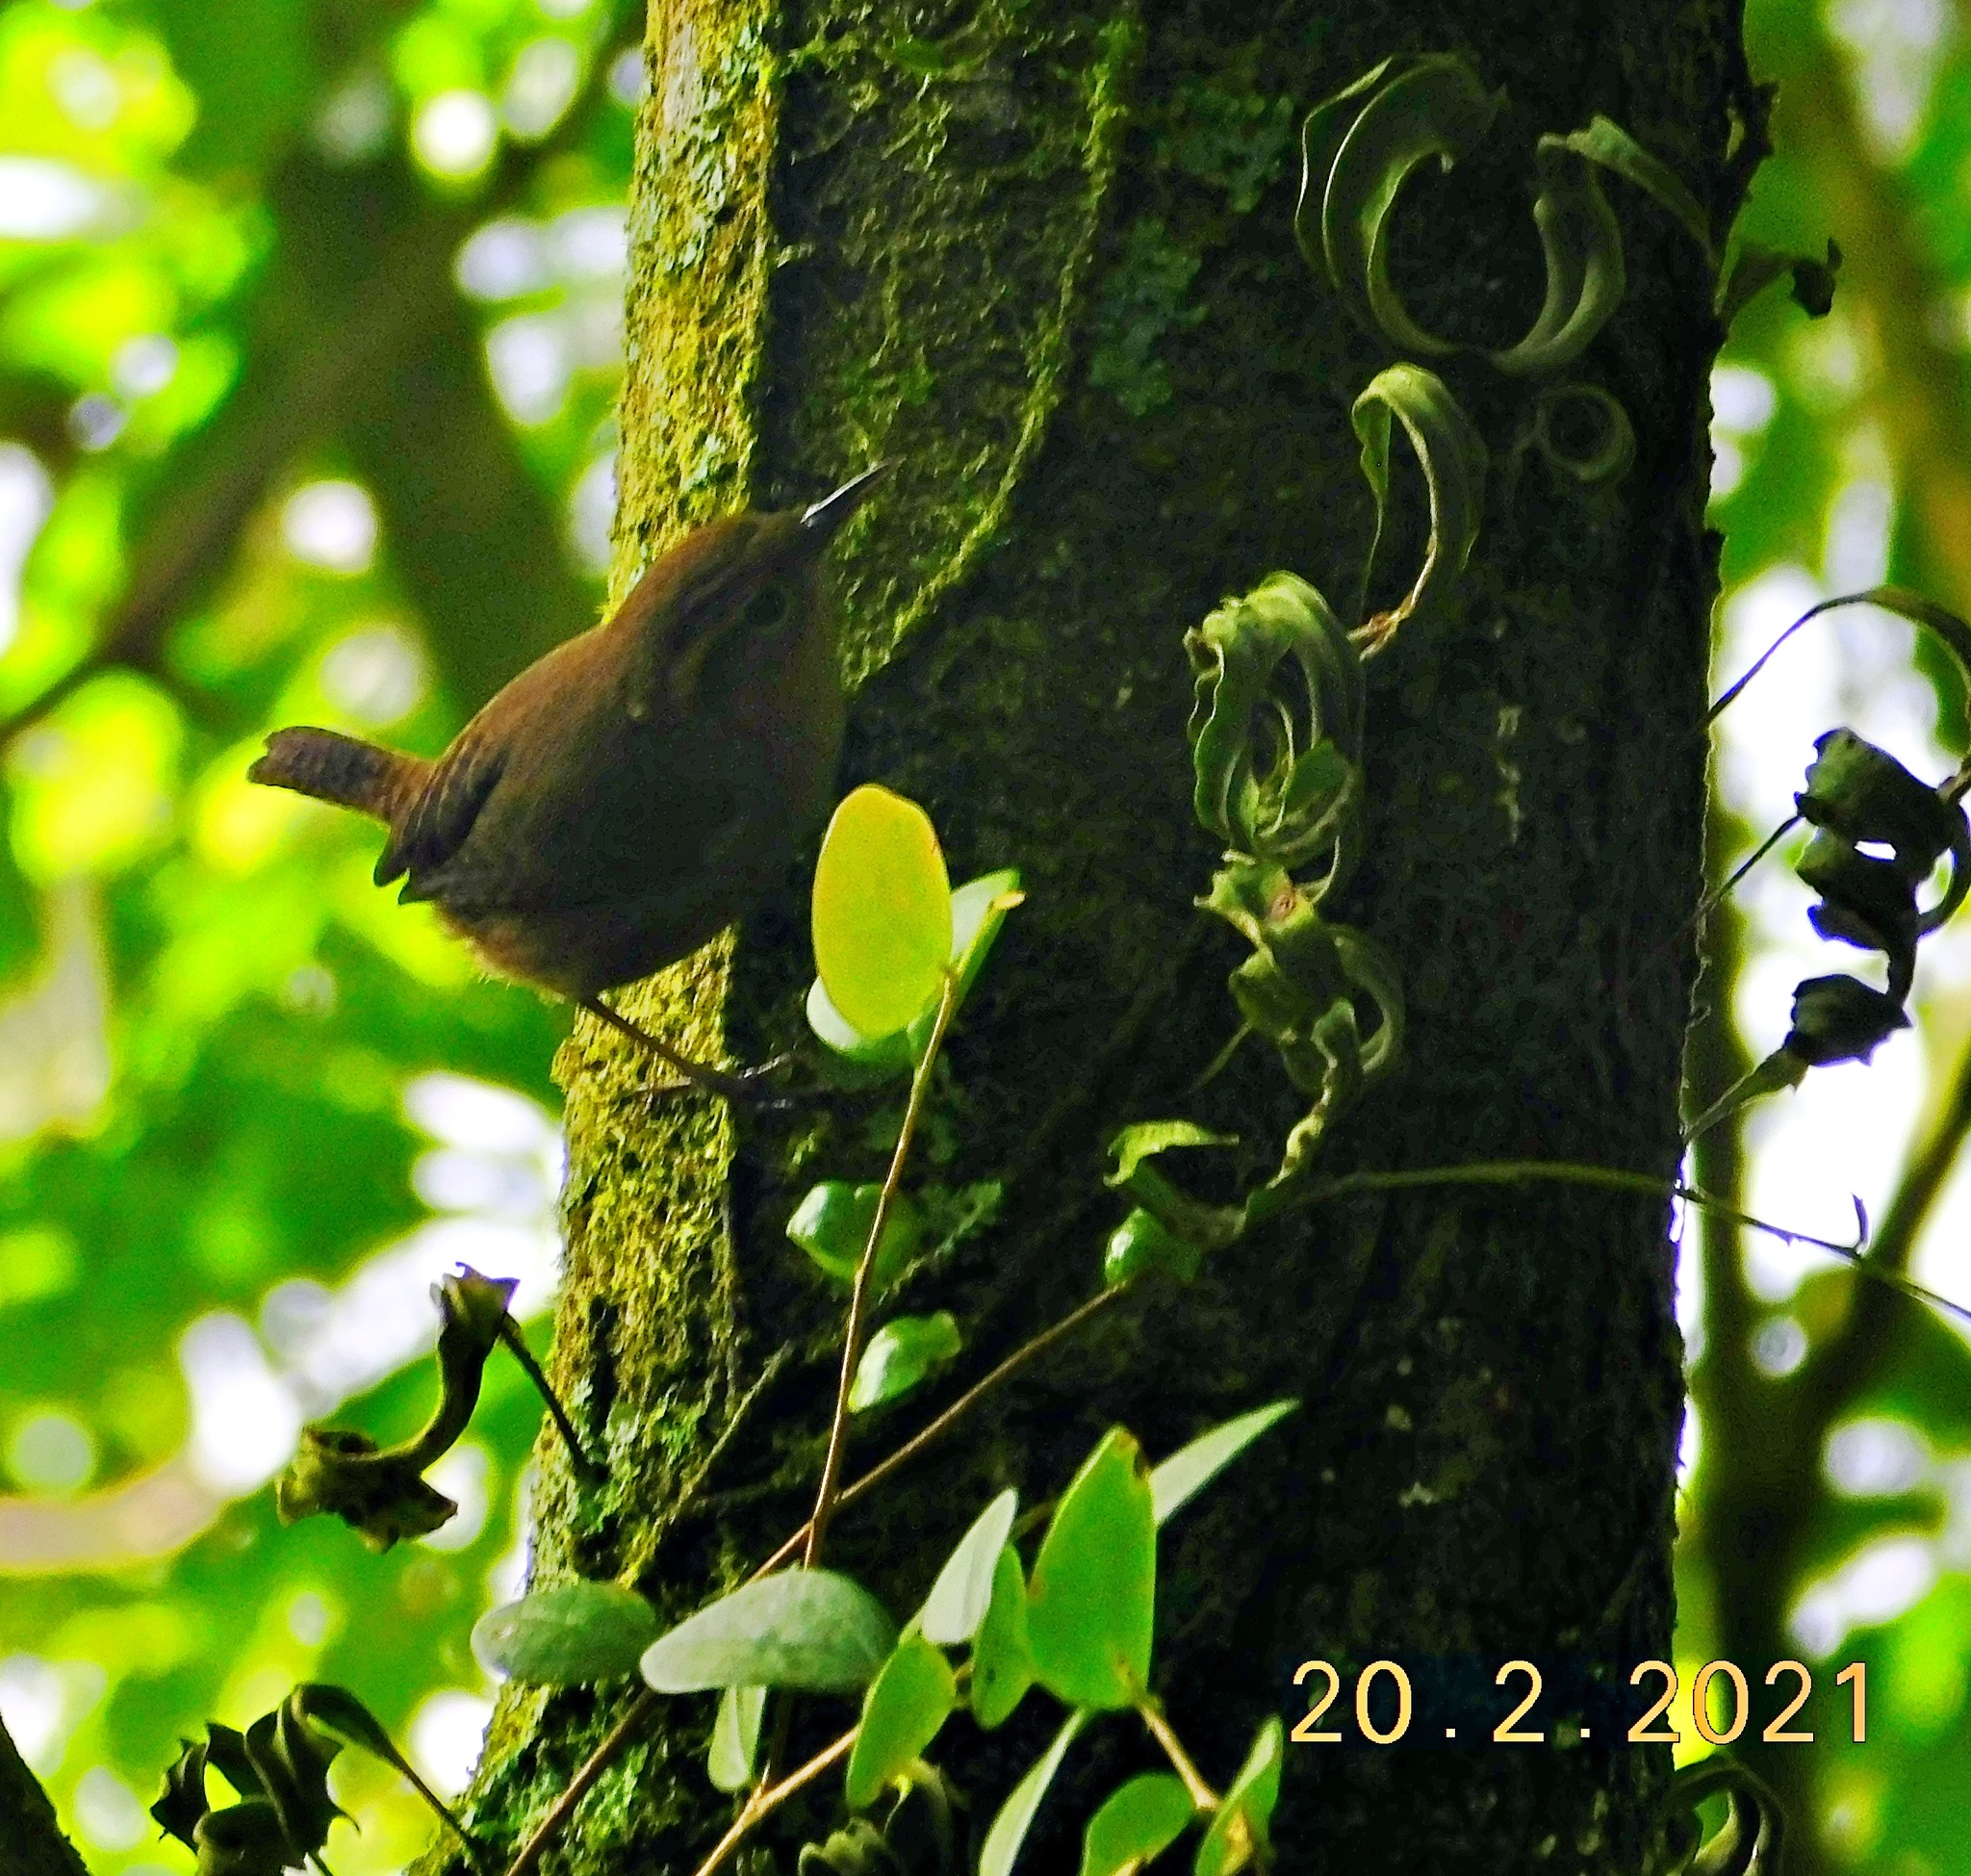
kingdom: Animalia
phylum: Chordata
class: Aves
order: Passeriformes
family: Troglodytidae
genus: Troglodytes
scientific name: Troglodytes ochraceus
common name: Ochraceous wren
